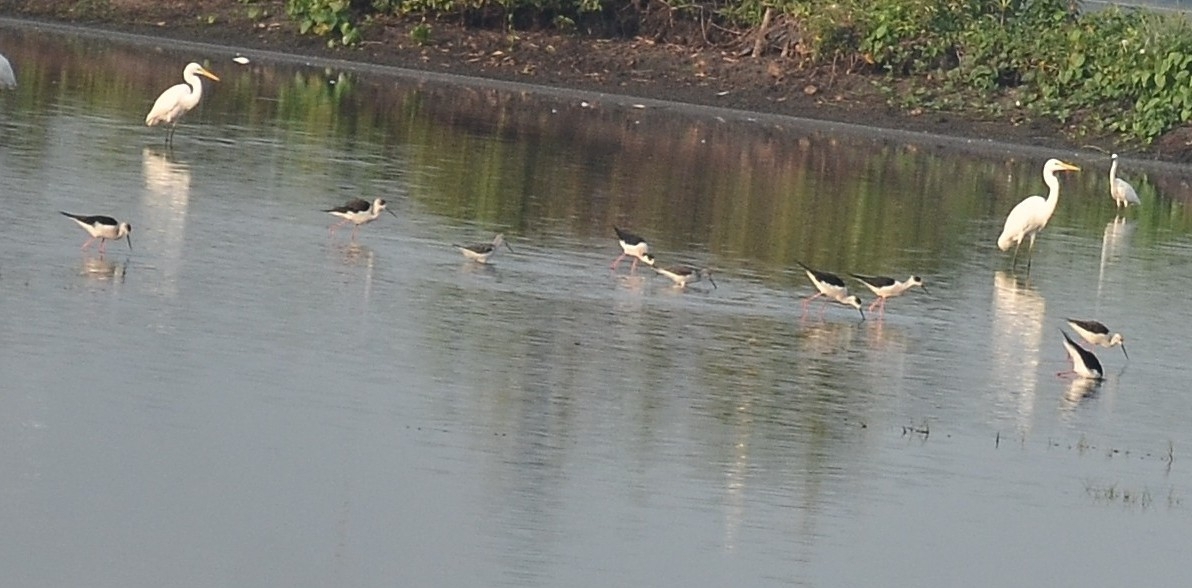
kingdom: Animalia
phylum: Chordata
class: Aves
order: Charadriiformes
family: Recurvirostridae
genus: Himantopus
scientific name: Himantopus himantopus
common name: Black-winged stilt
